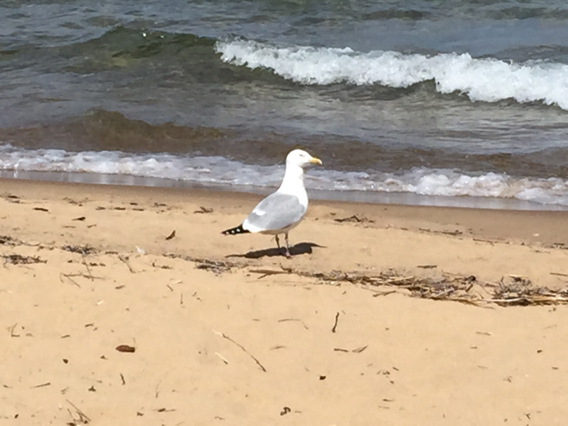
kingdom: Animalia
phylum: Chordata
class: Aves
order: Charadriiformes
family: Laridae
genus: Larus
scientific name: Larus argentatus
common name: Herring gull
